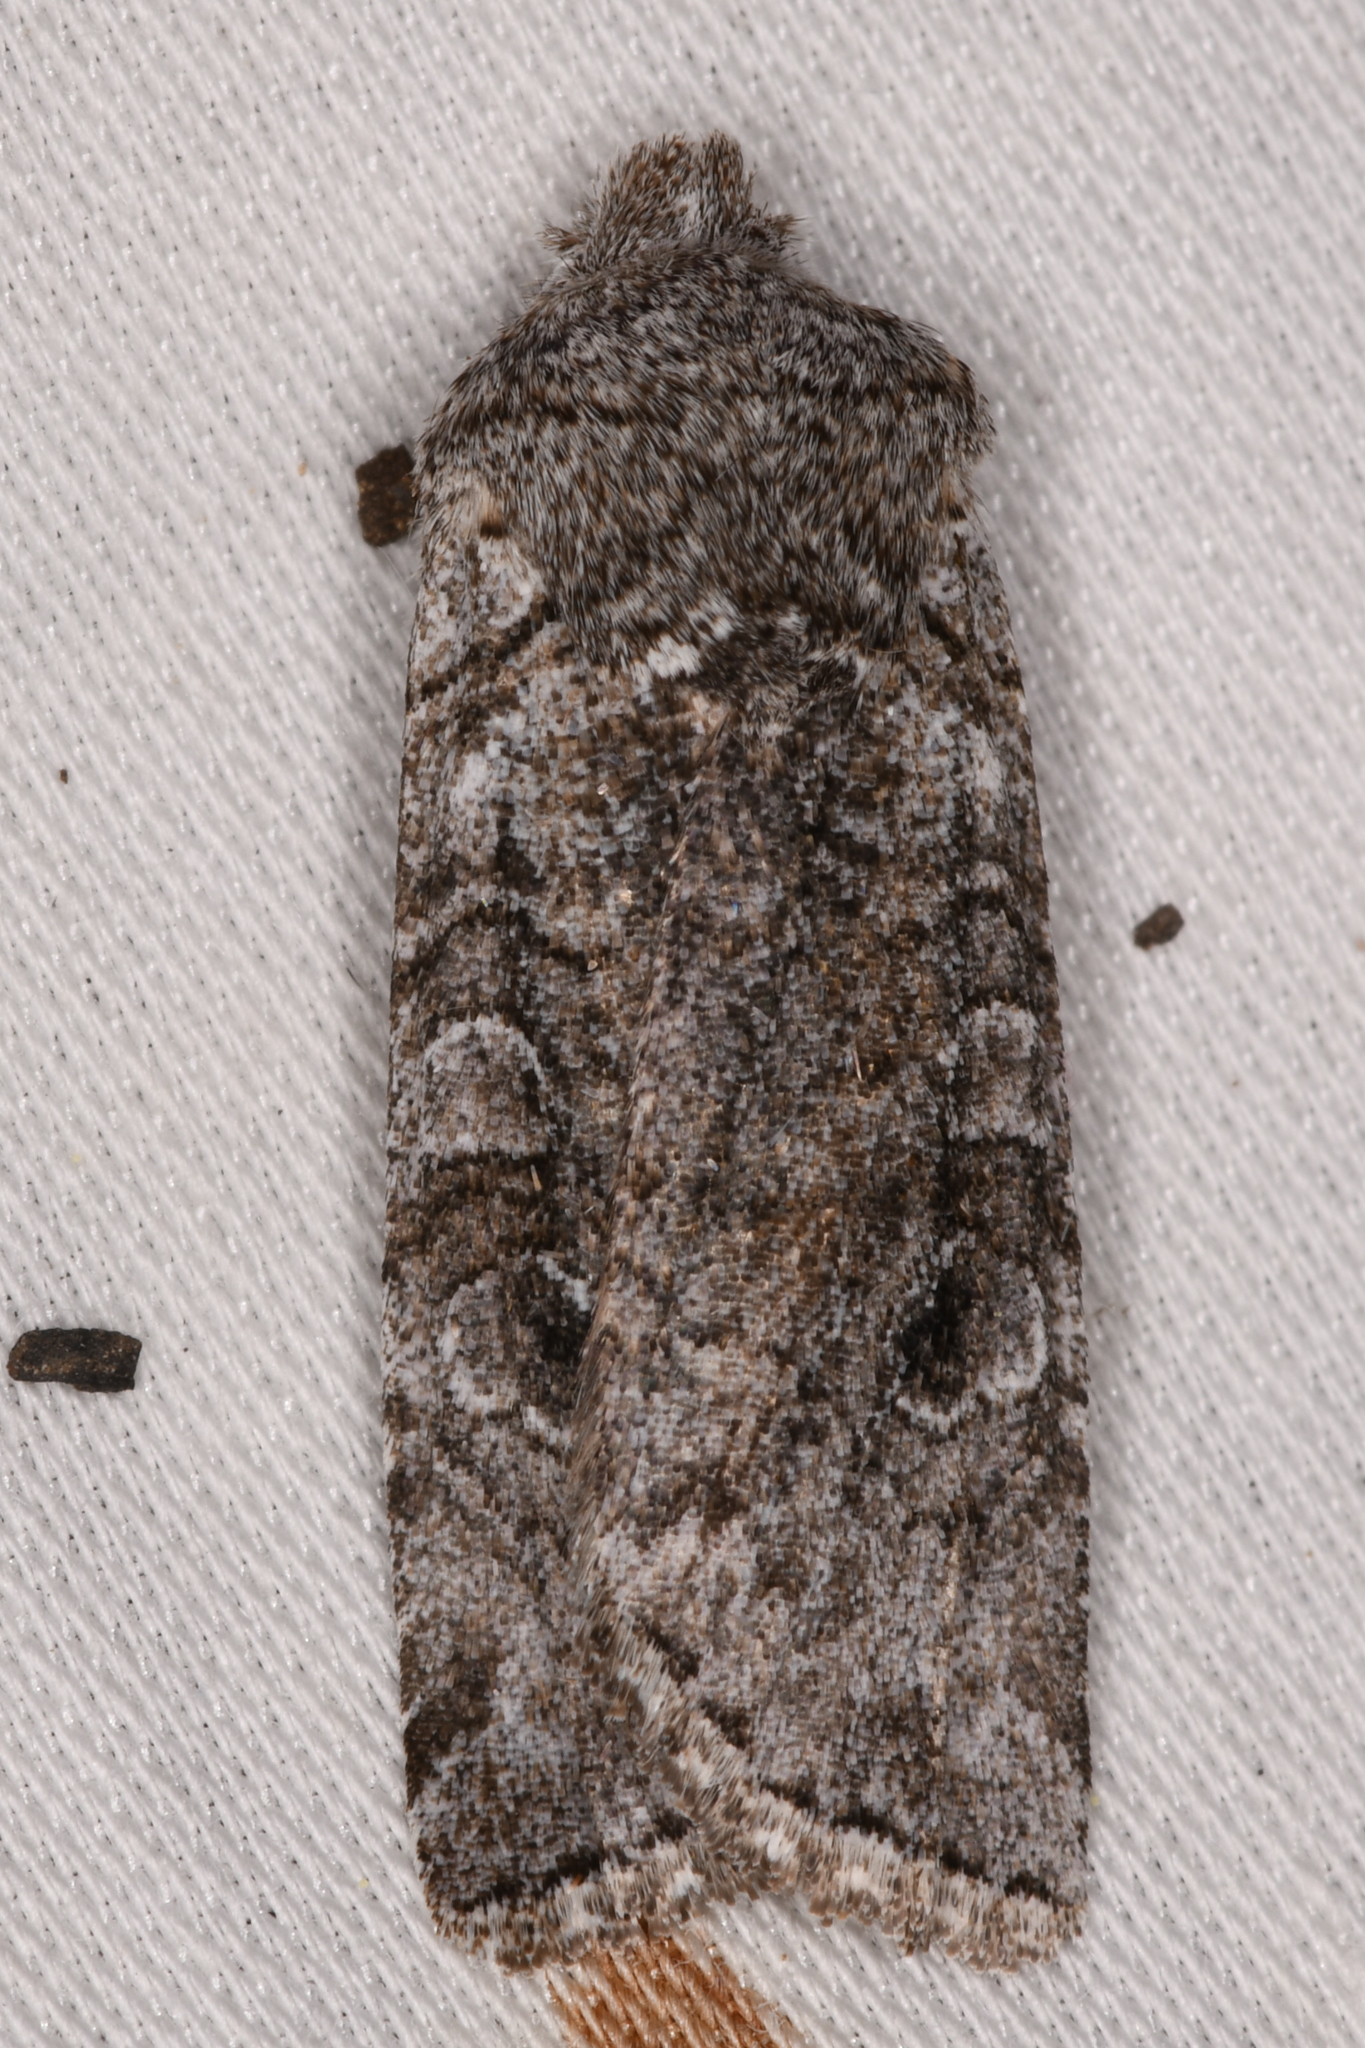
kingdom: Animalia
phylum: Arthropoda
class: Insecta
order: Lepidoptera
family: Noctuidae
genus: Litholomia
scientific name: Litholomia napaea
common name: False pinion moth
